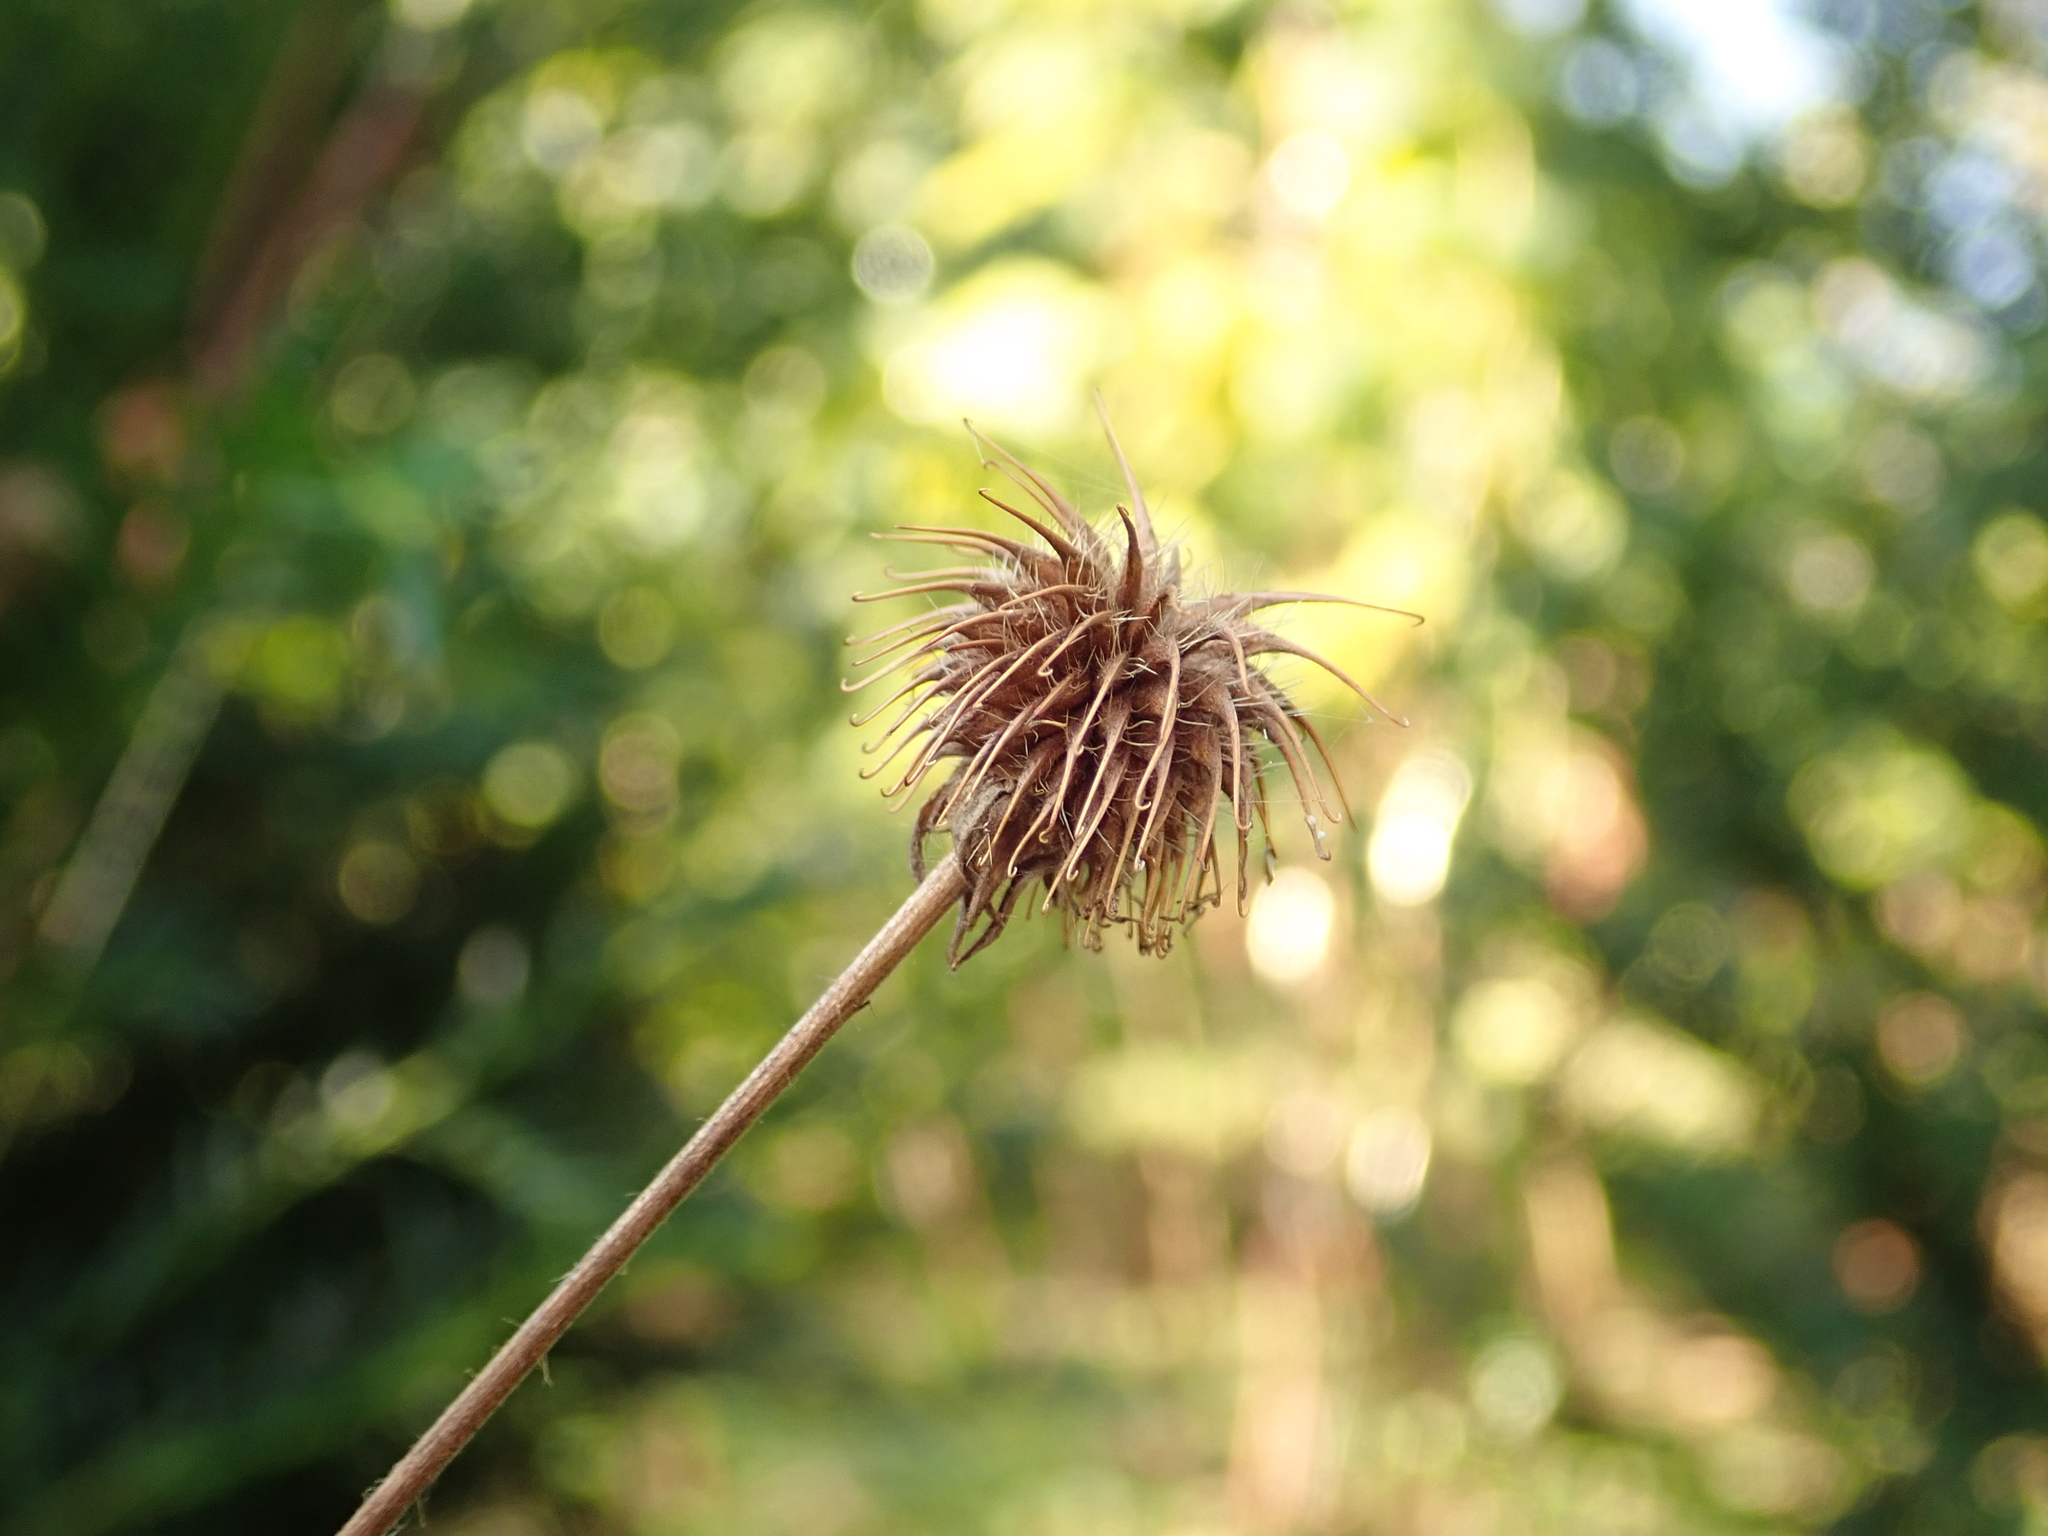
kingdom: Plantae
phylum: Tracheophyta
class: Magnoliopsida
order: Rosales
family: Rosaceae
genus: Geum
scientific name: Geum urbanum
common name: Wood avens
